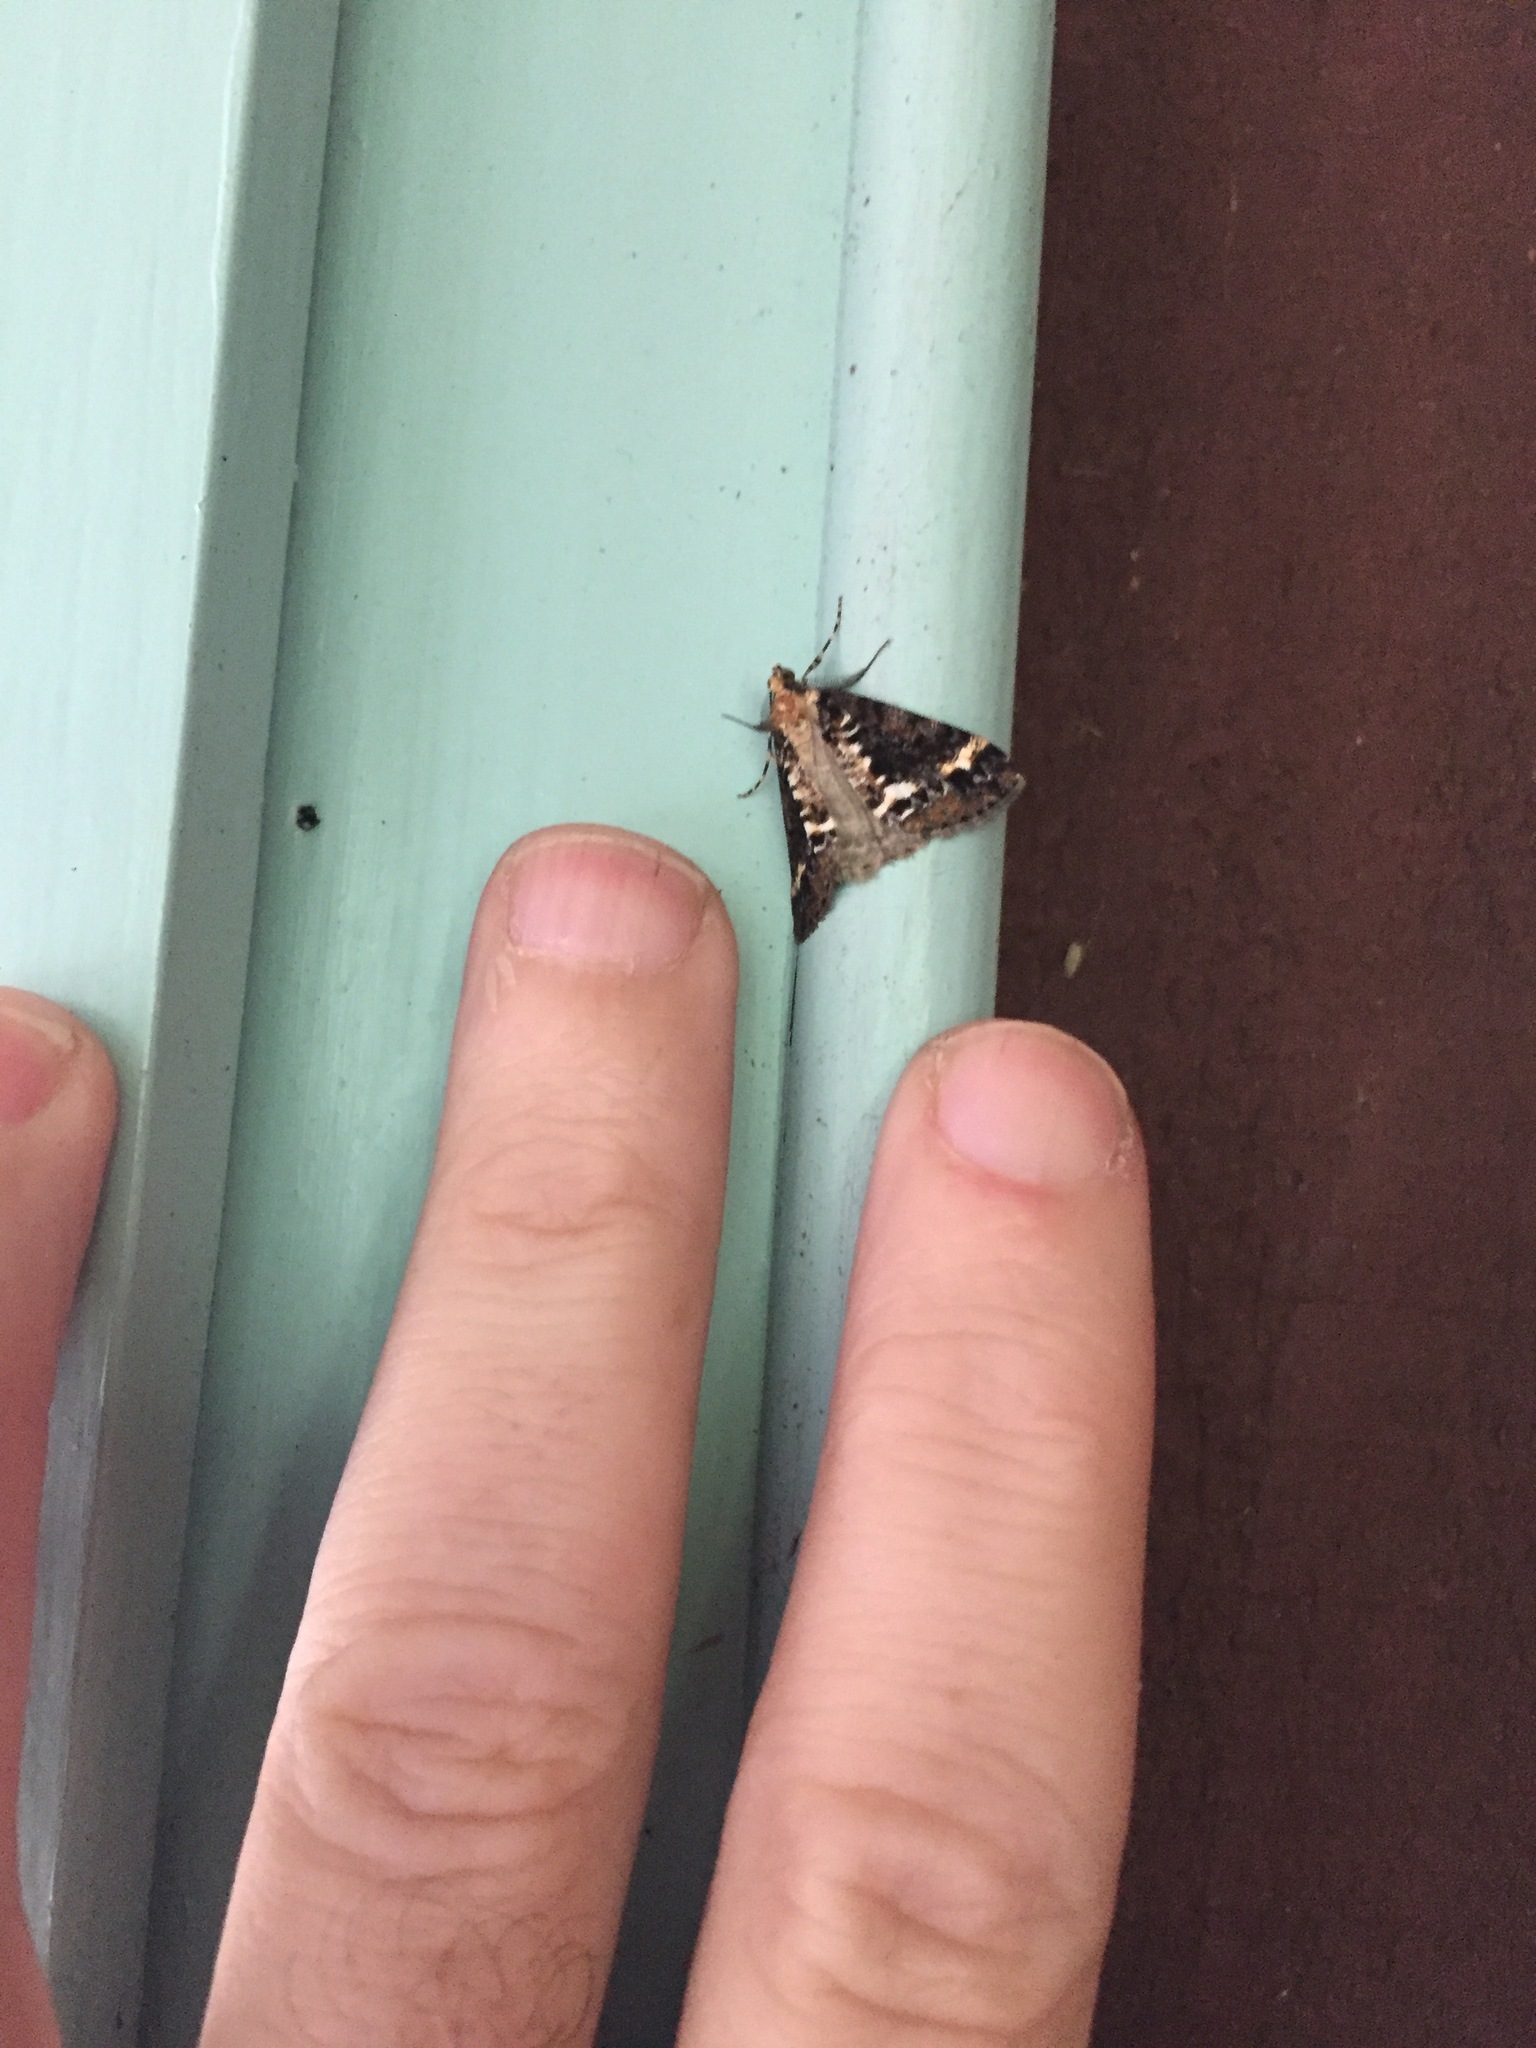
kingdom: Animalia
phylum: Arthropoda
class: Insecta
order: Lepidoptera
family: Geometridae
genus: Pseudocoremia
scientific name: Pseudocoremia leucelaea
